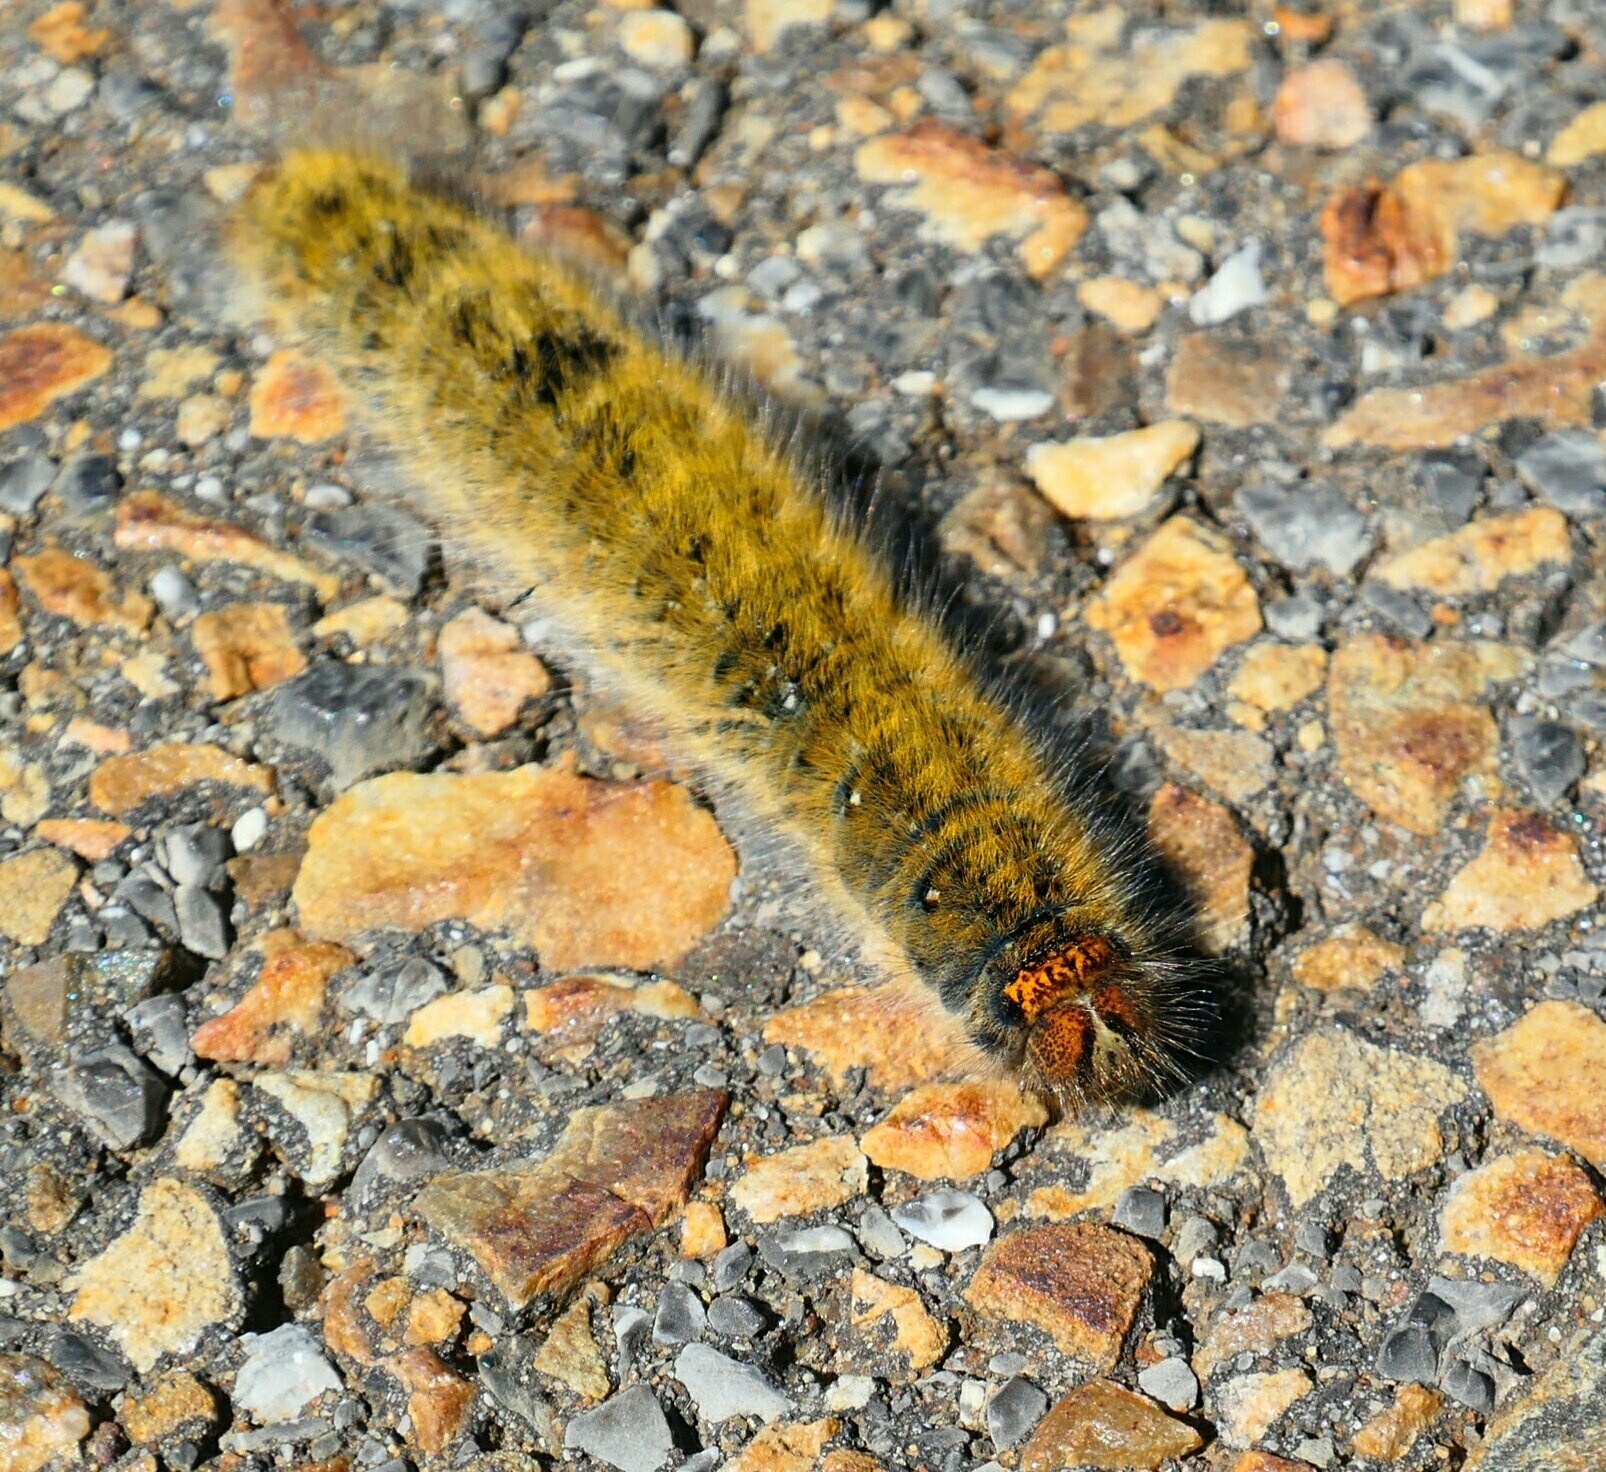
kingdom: Animalia
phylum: Arthropoda
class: Insecta
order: Lepidoptera
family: Lasiocampidae
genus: Lasiocampa
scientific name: Lasiocampa trifolii
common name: Grass eggar
